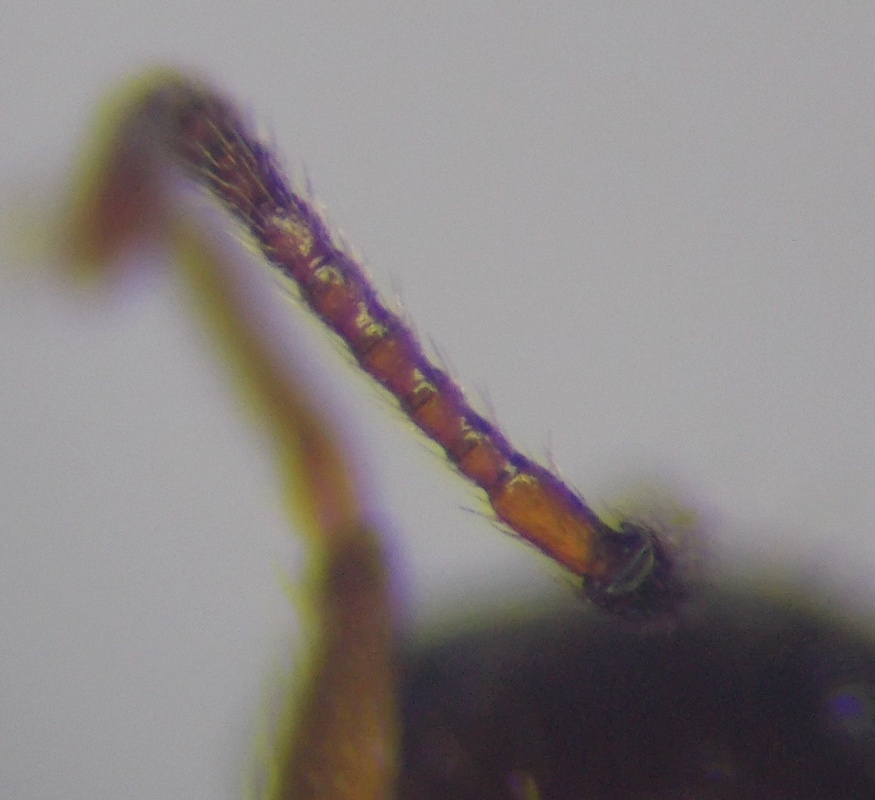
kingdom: Animalia
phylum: Arthropoda
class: Insecta
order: Hymenoptera
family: Formicidae
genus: Aphaenogaster
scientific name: Aphaenogaster subterranea
